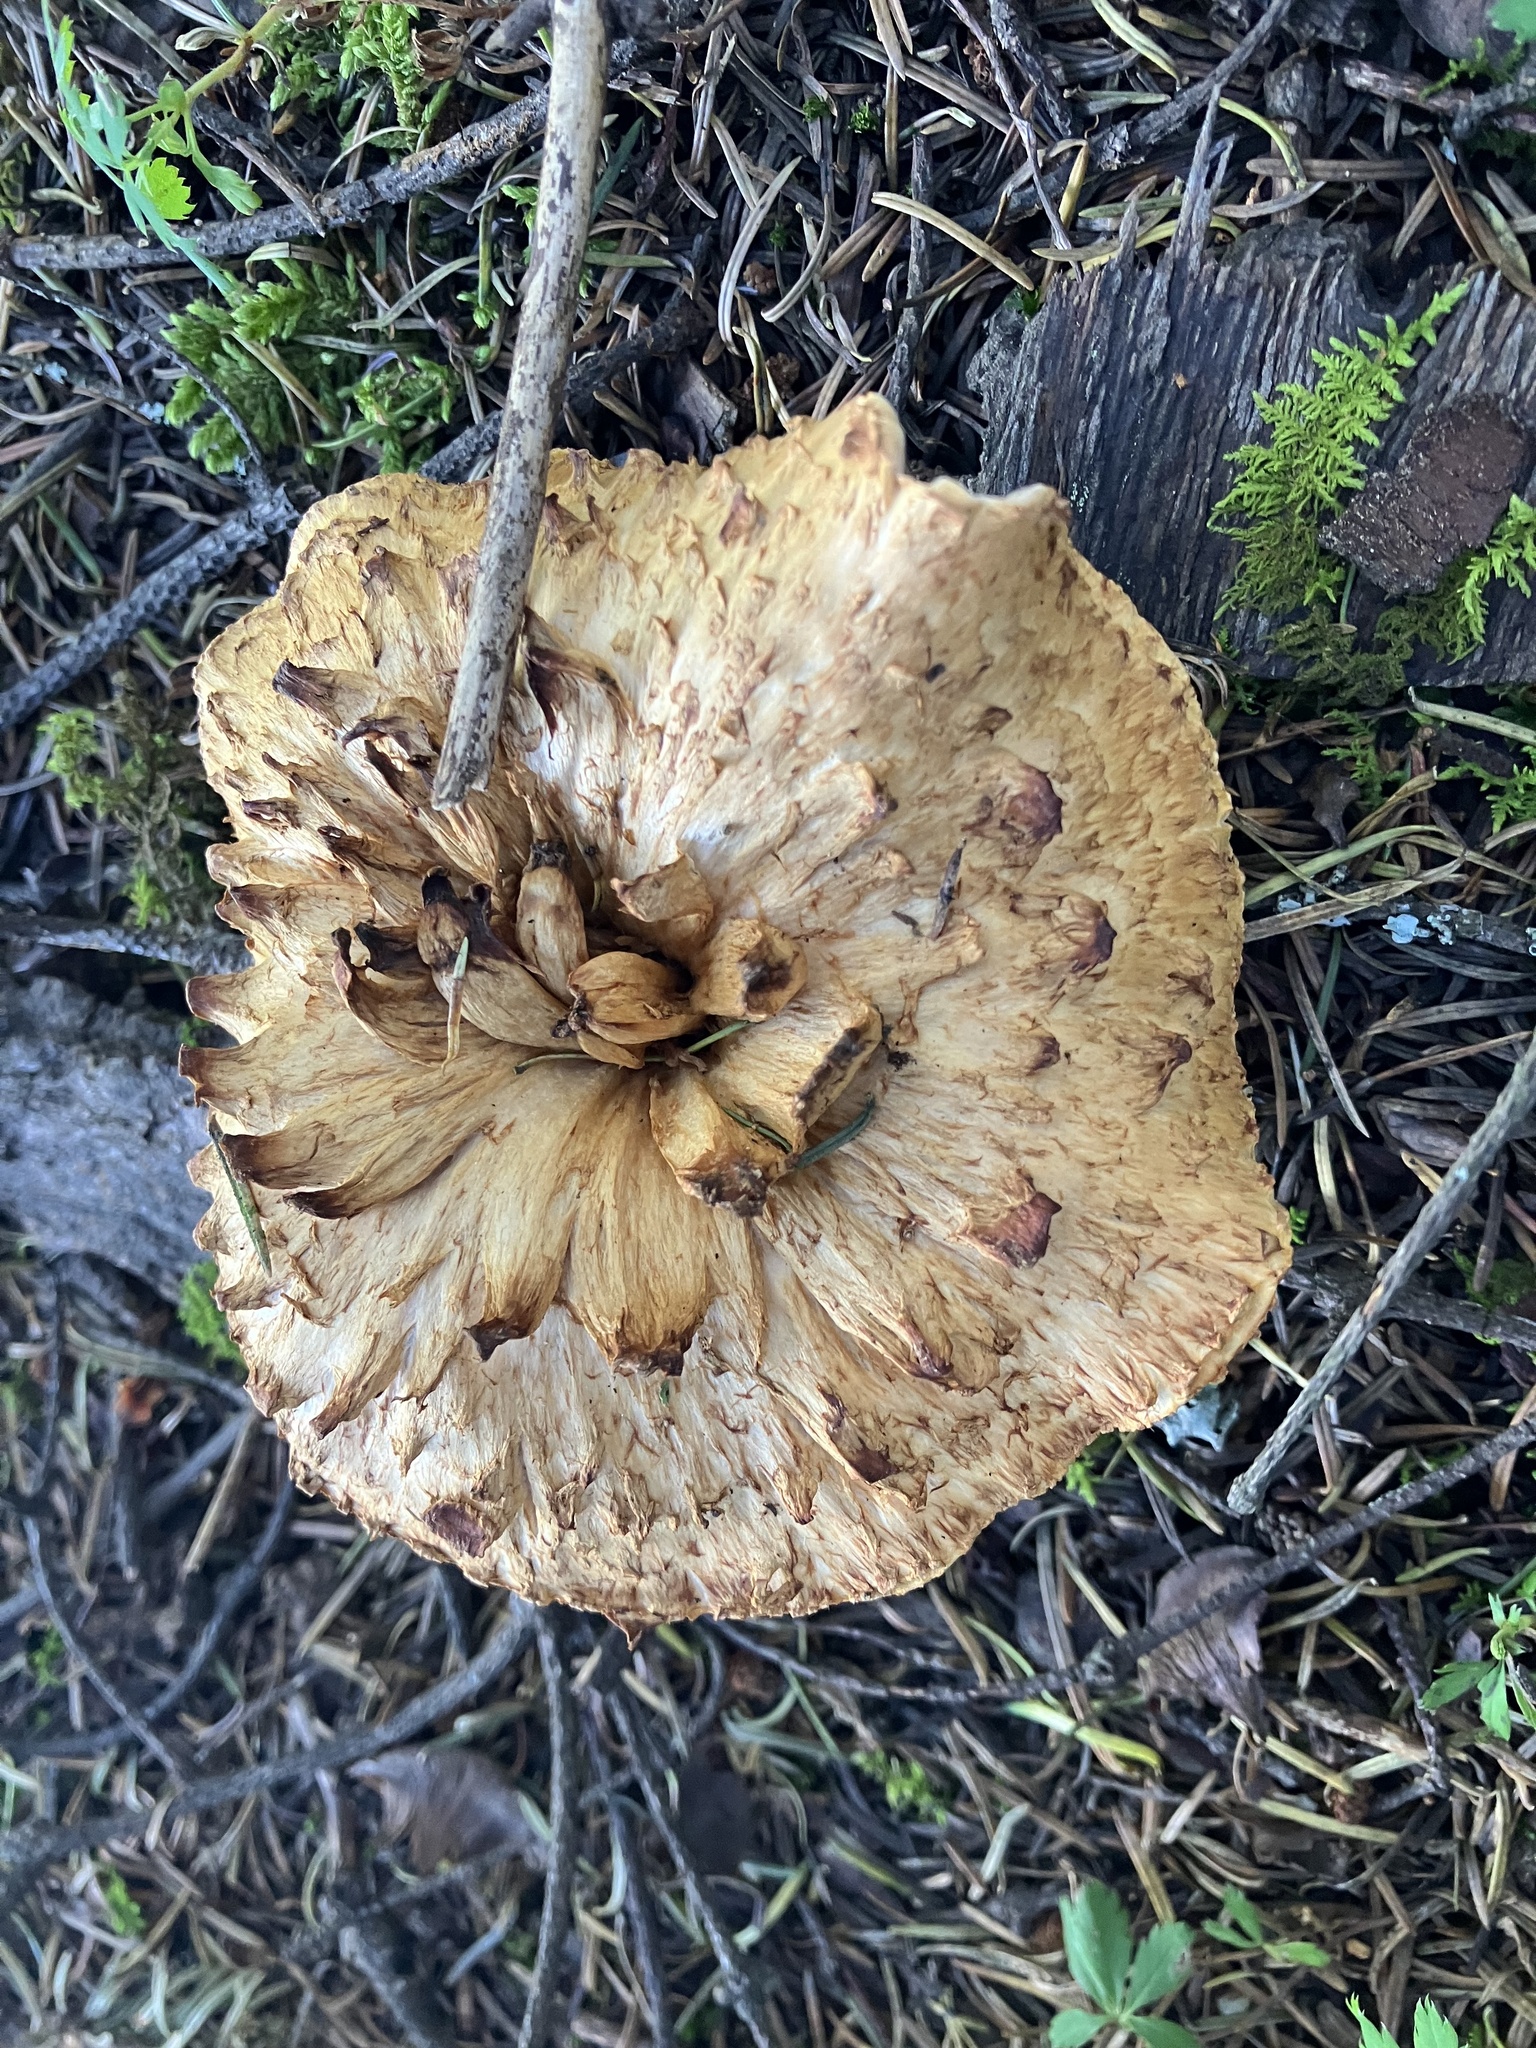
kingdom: Fungi
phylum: Basidiomycota
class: Agaricomycetes
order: Gomphales
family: Gomphaceae
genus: Turbinellus
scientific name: Turbinellus floccosus
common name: Scaly chanterelle
